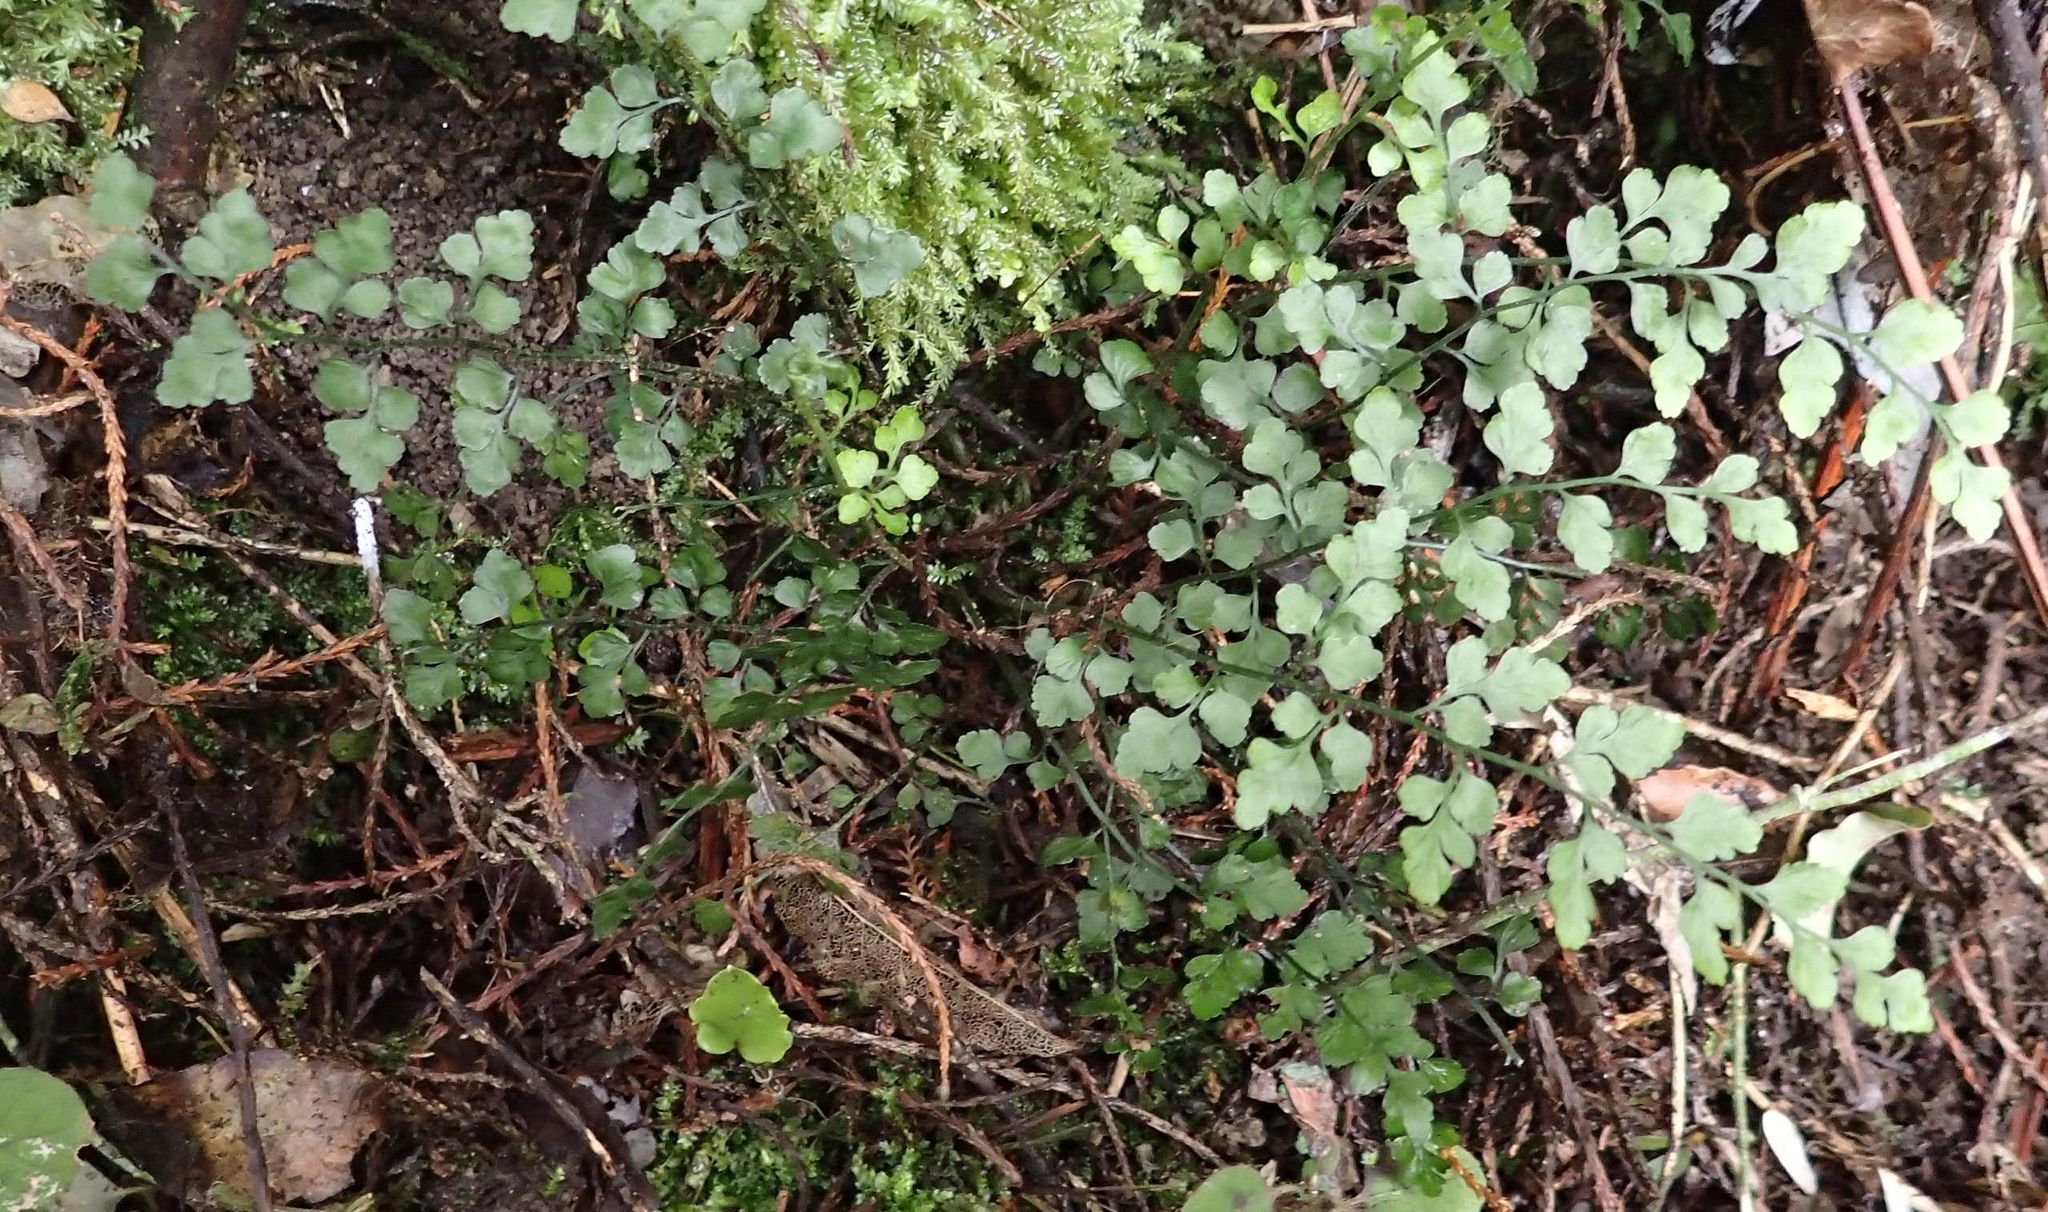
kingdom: Plantae
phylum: Tracheophyta
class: Polypodiopsida
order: Polypodiales
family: Aspleniaceae
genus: Asplenium
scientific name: Asplenium hookerianum
